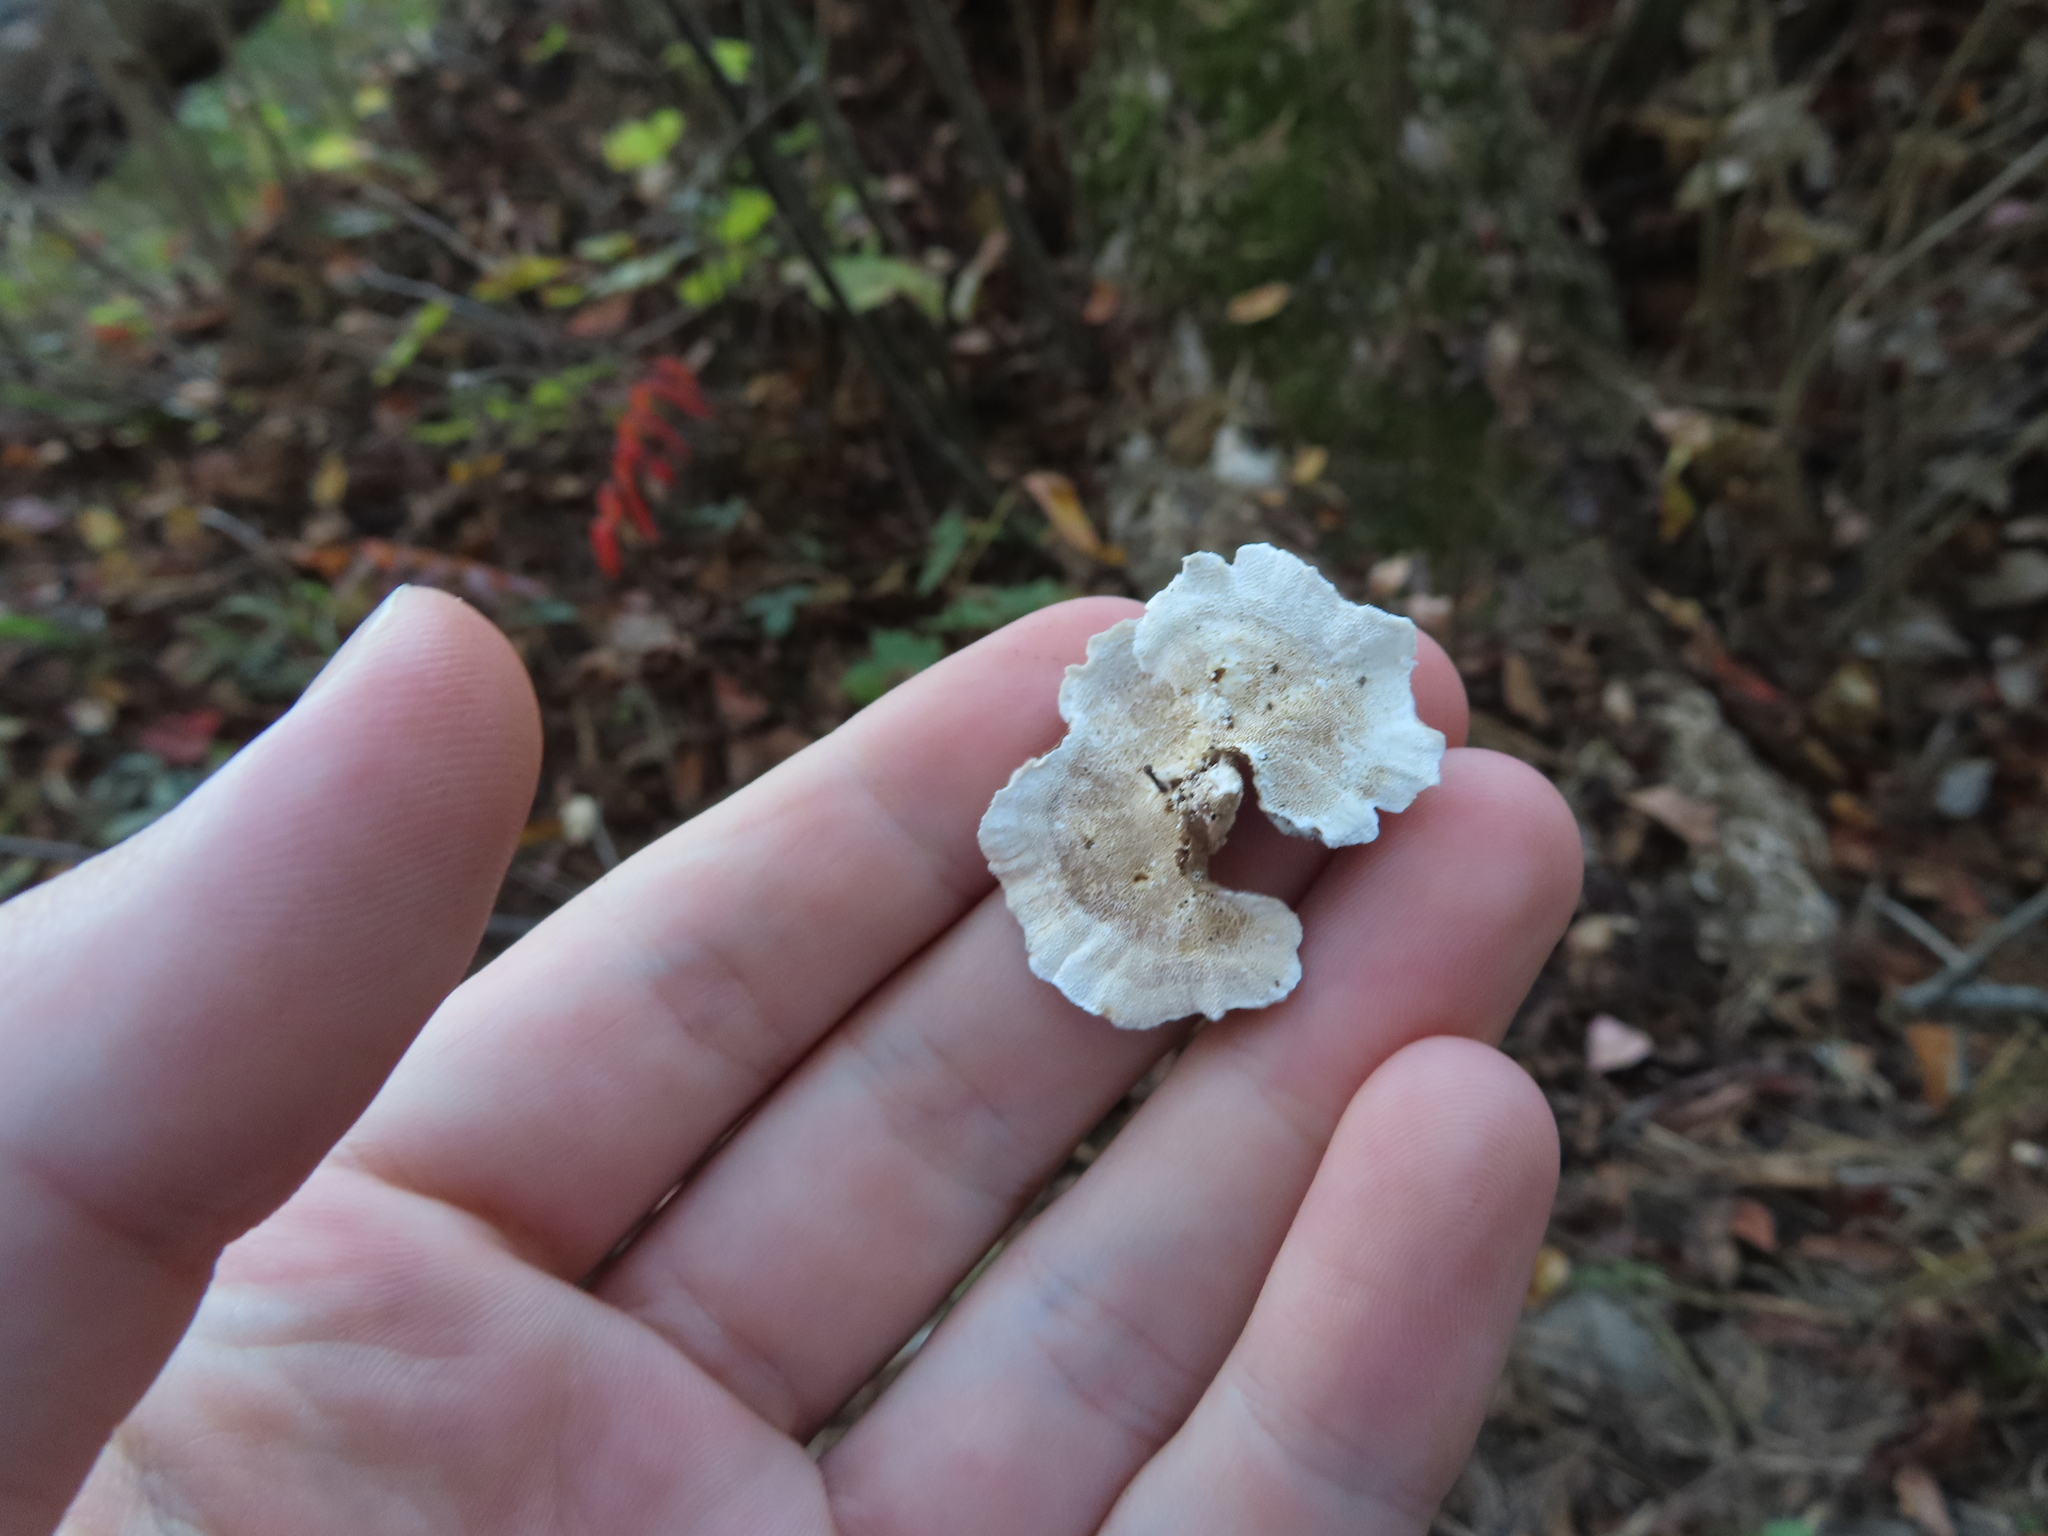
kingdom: Fungi
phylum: Basidiomycota
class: Agaricomycetes
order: Polyporales
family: Polyporaceae
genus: Trametes
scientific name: Trametes versicolor
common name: Turkeytail
